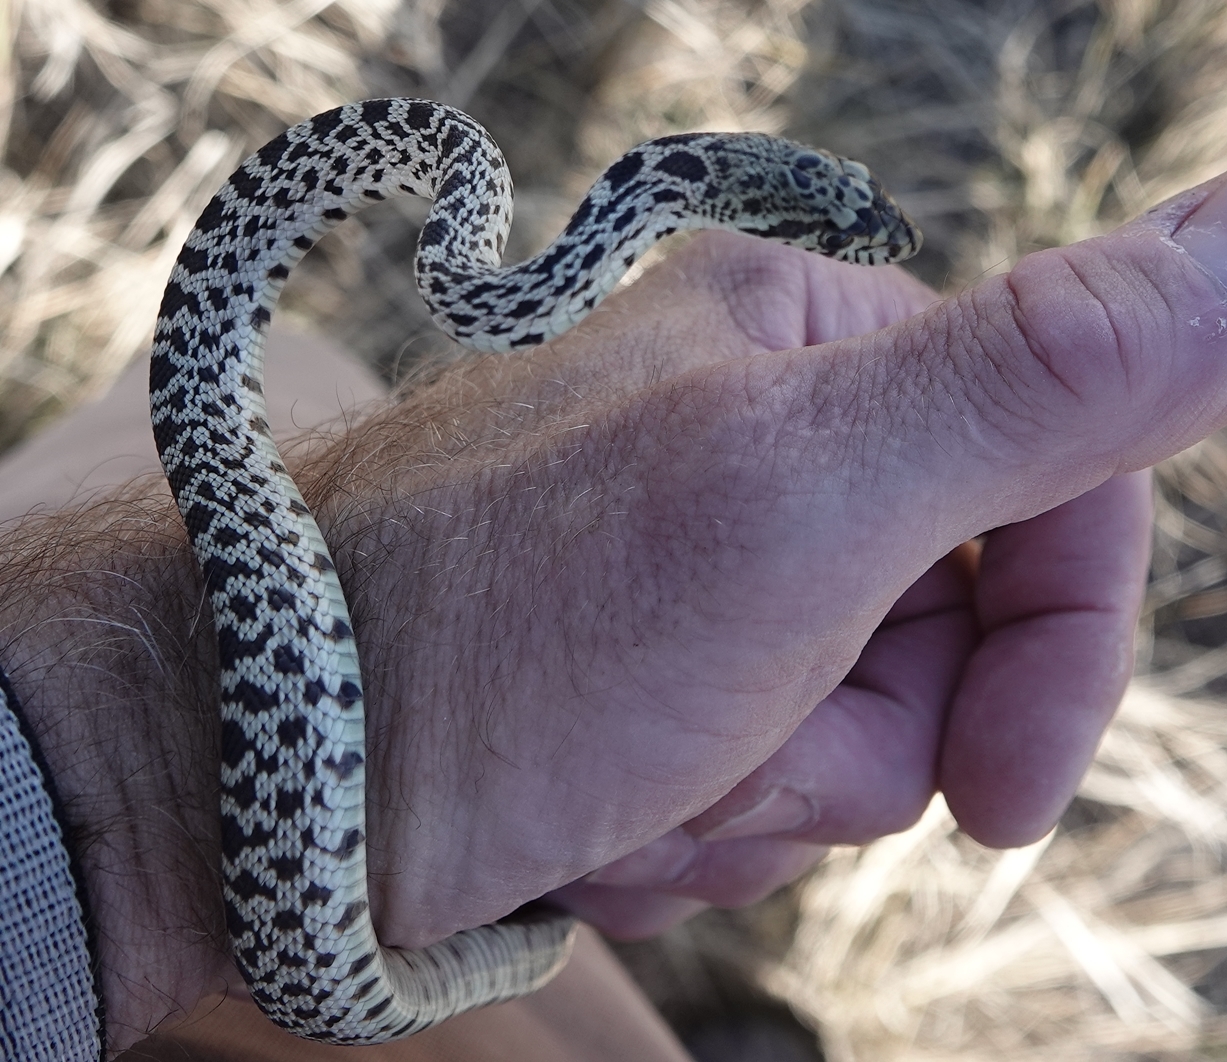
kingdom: Animalia
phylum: Chordata
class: Squamata
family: Colubridae
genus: Pituophis
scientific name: Pituophis catenifer
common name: Gopher snake
